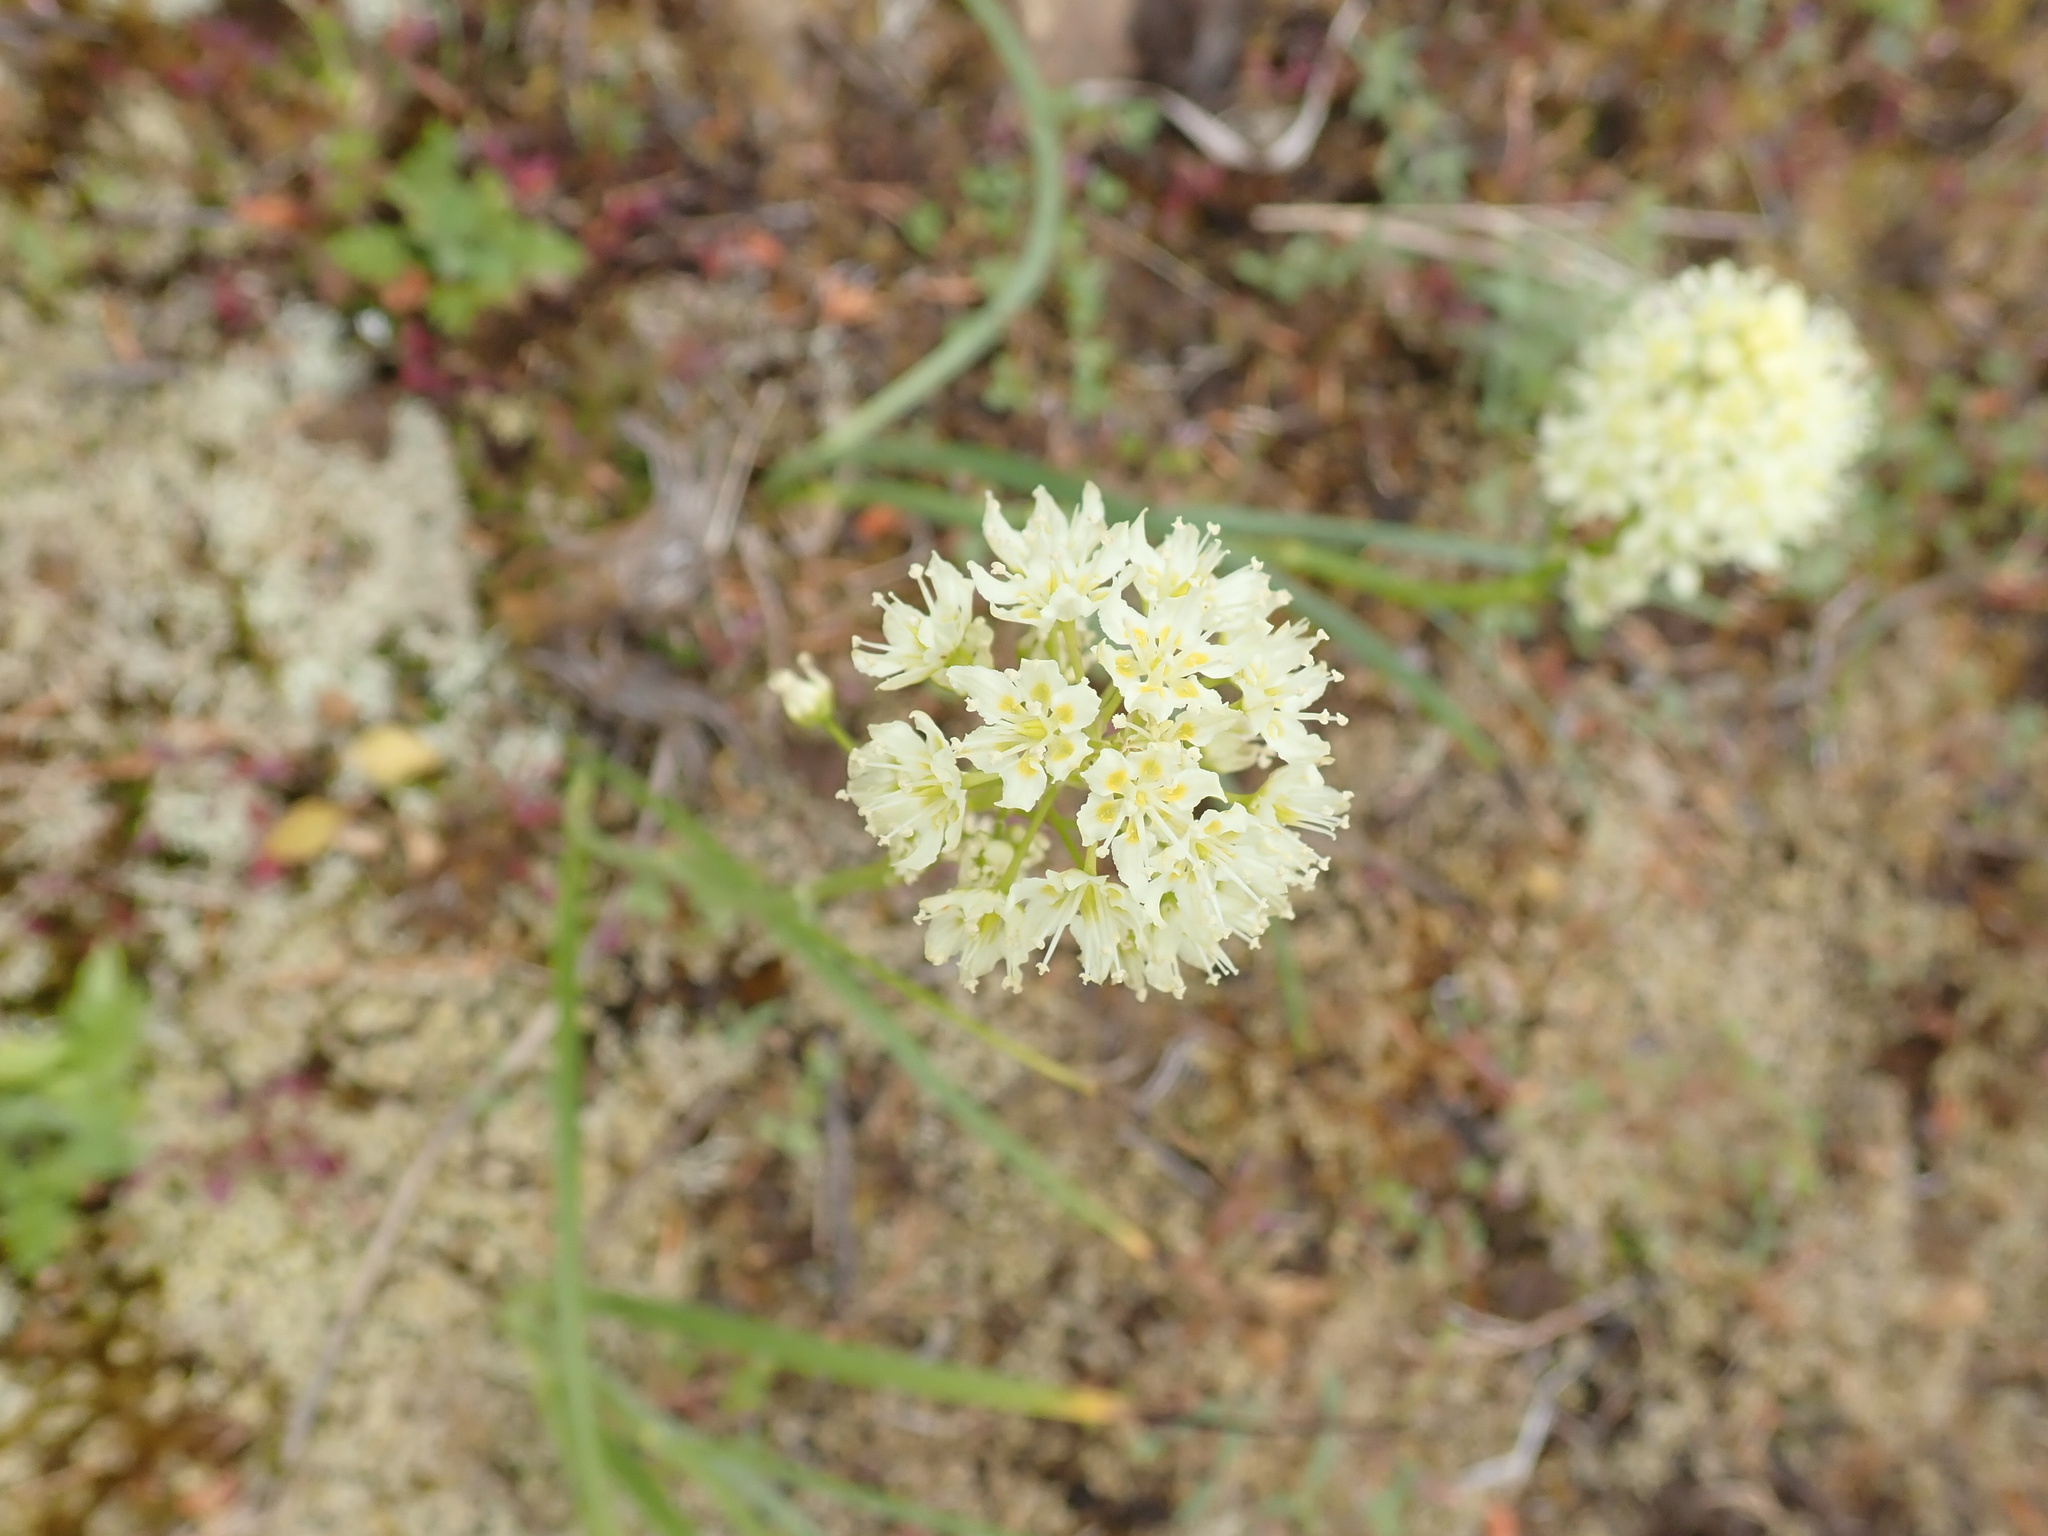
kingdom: Plantae
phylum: Tracheophyta
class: Liliopsida
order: Liliales
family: Melanthiaceae
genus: Toxicoscordion
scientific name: Toxicoscordion venenosum
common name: Meadow death camas
